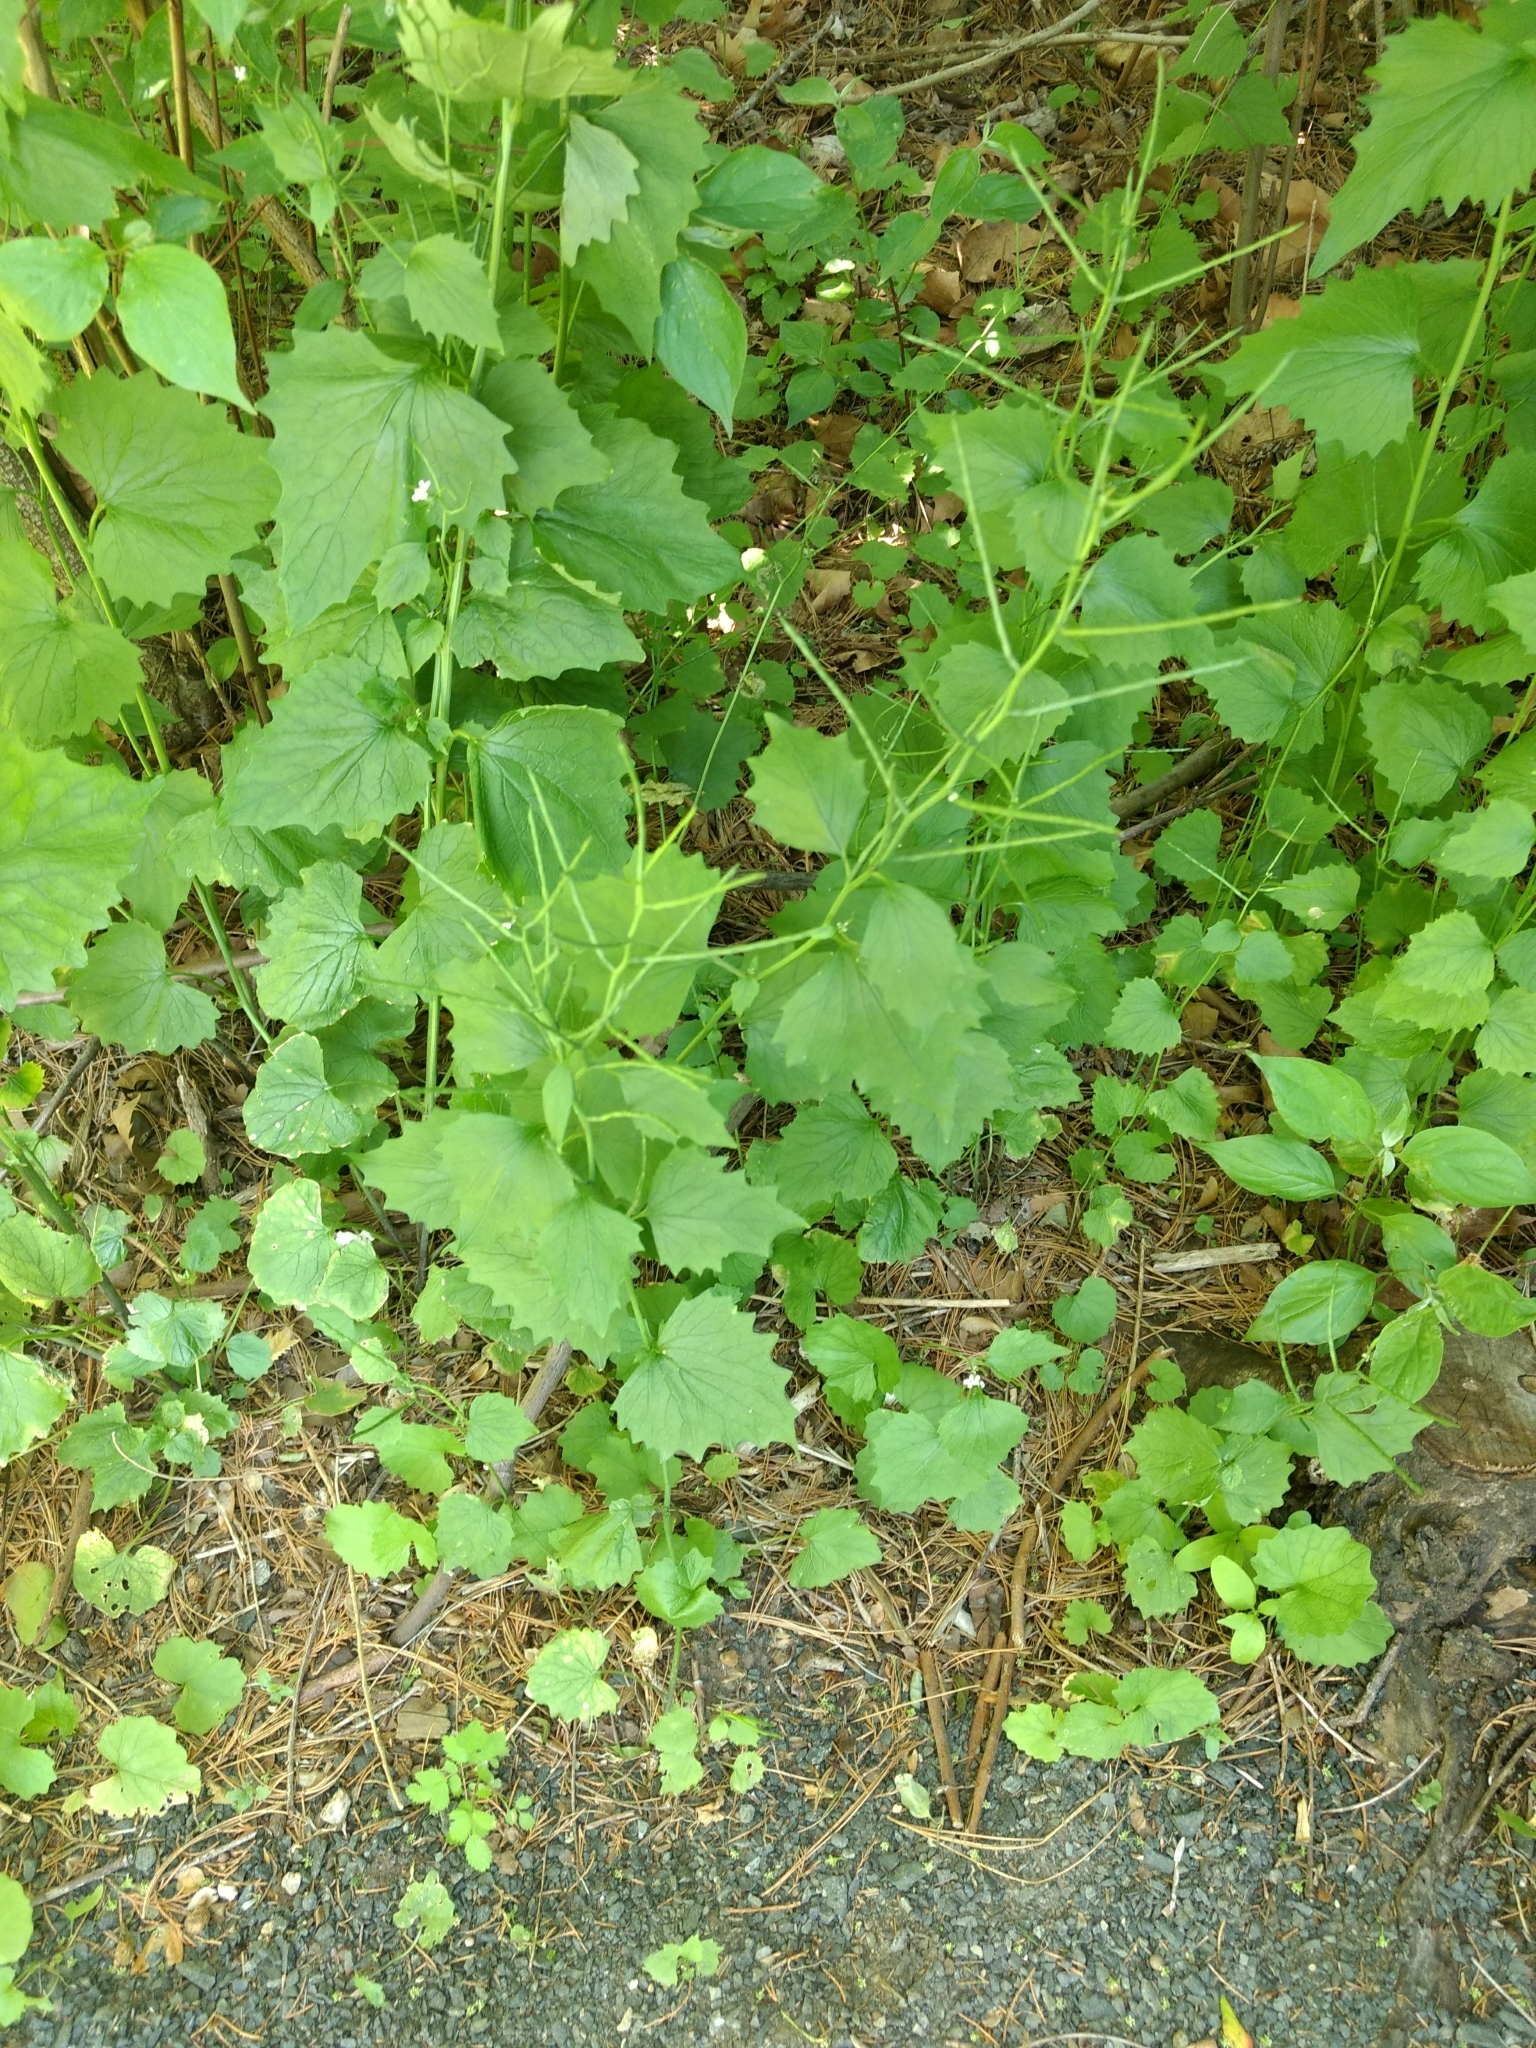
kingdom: Plantae
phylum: Tracheophyta
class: Magnoliopsida
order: Brassicales
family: Brassicaceae
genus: Alliaria
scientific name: Alliaria petiolata
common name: Garlic mustard
